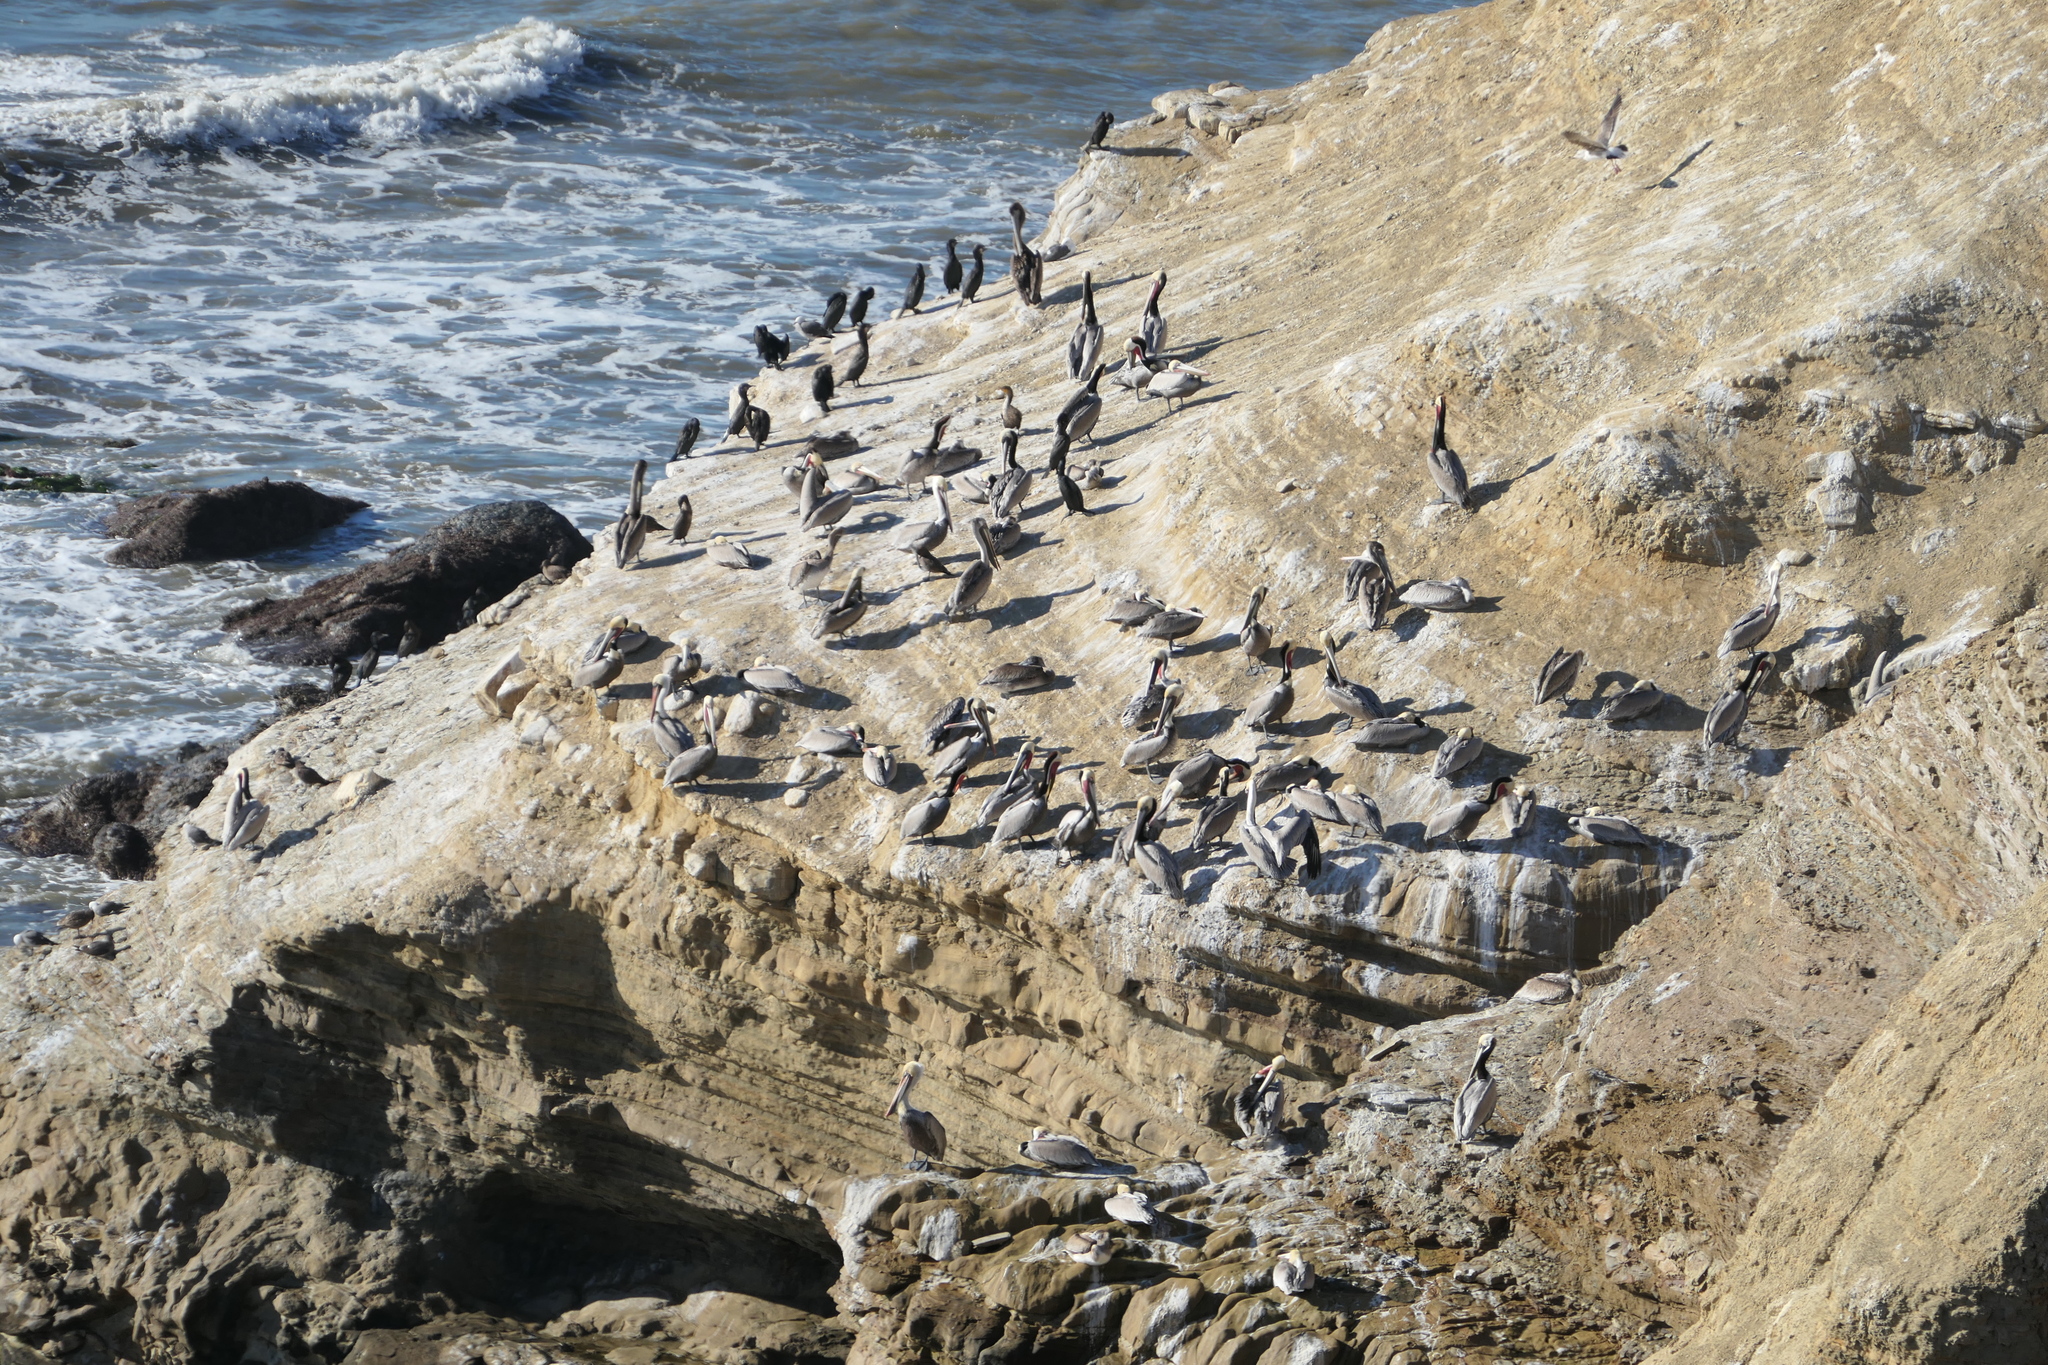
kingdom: Animalia
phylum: Chordata
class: Aves
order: Pelecaniformes
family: Pelecanidae
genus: Pelecanus
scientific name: Pelecanus occidentalis
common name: Brown pelican
